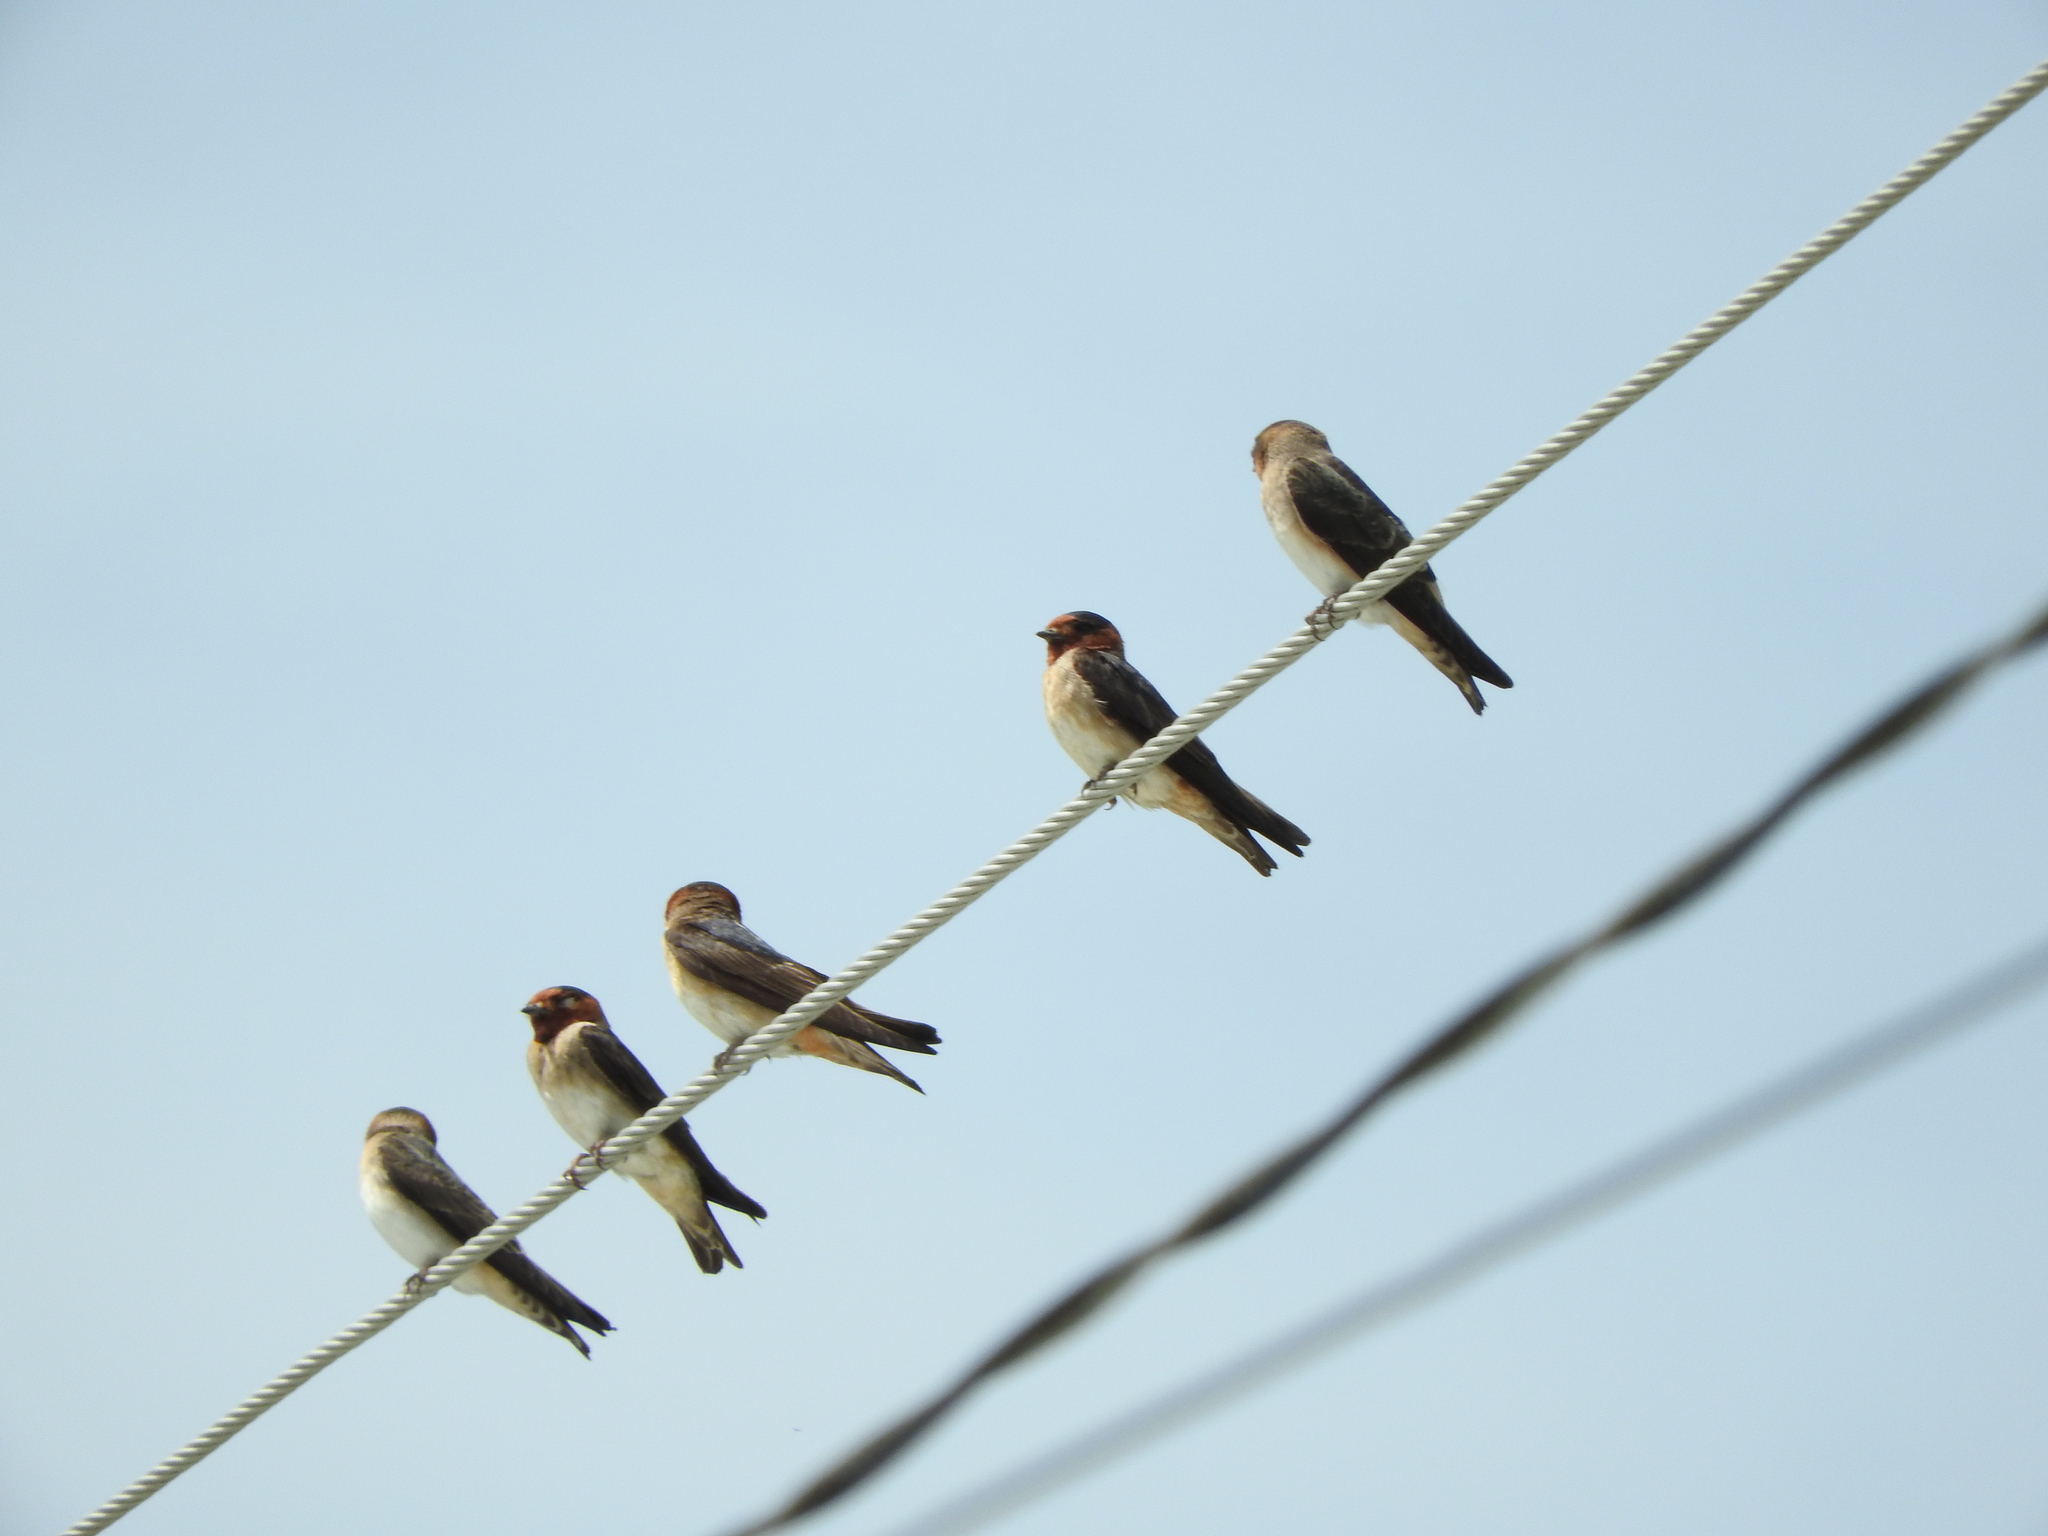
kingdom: Animalia
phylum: Chordata
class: Aves
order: Passeriformes
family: Hirundinidae
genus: Petrochelidon
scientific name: Petrochelidon pyrrhonota
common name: American cliff swallow
